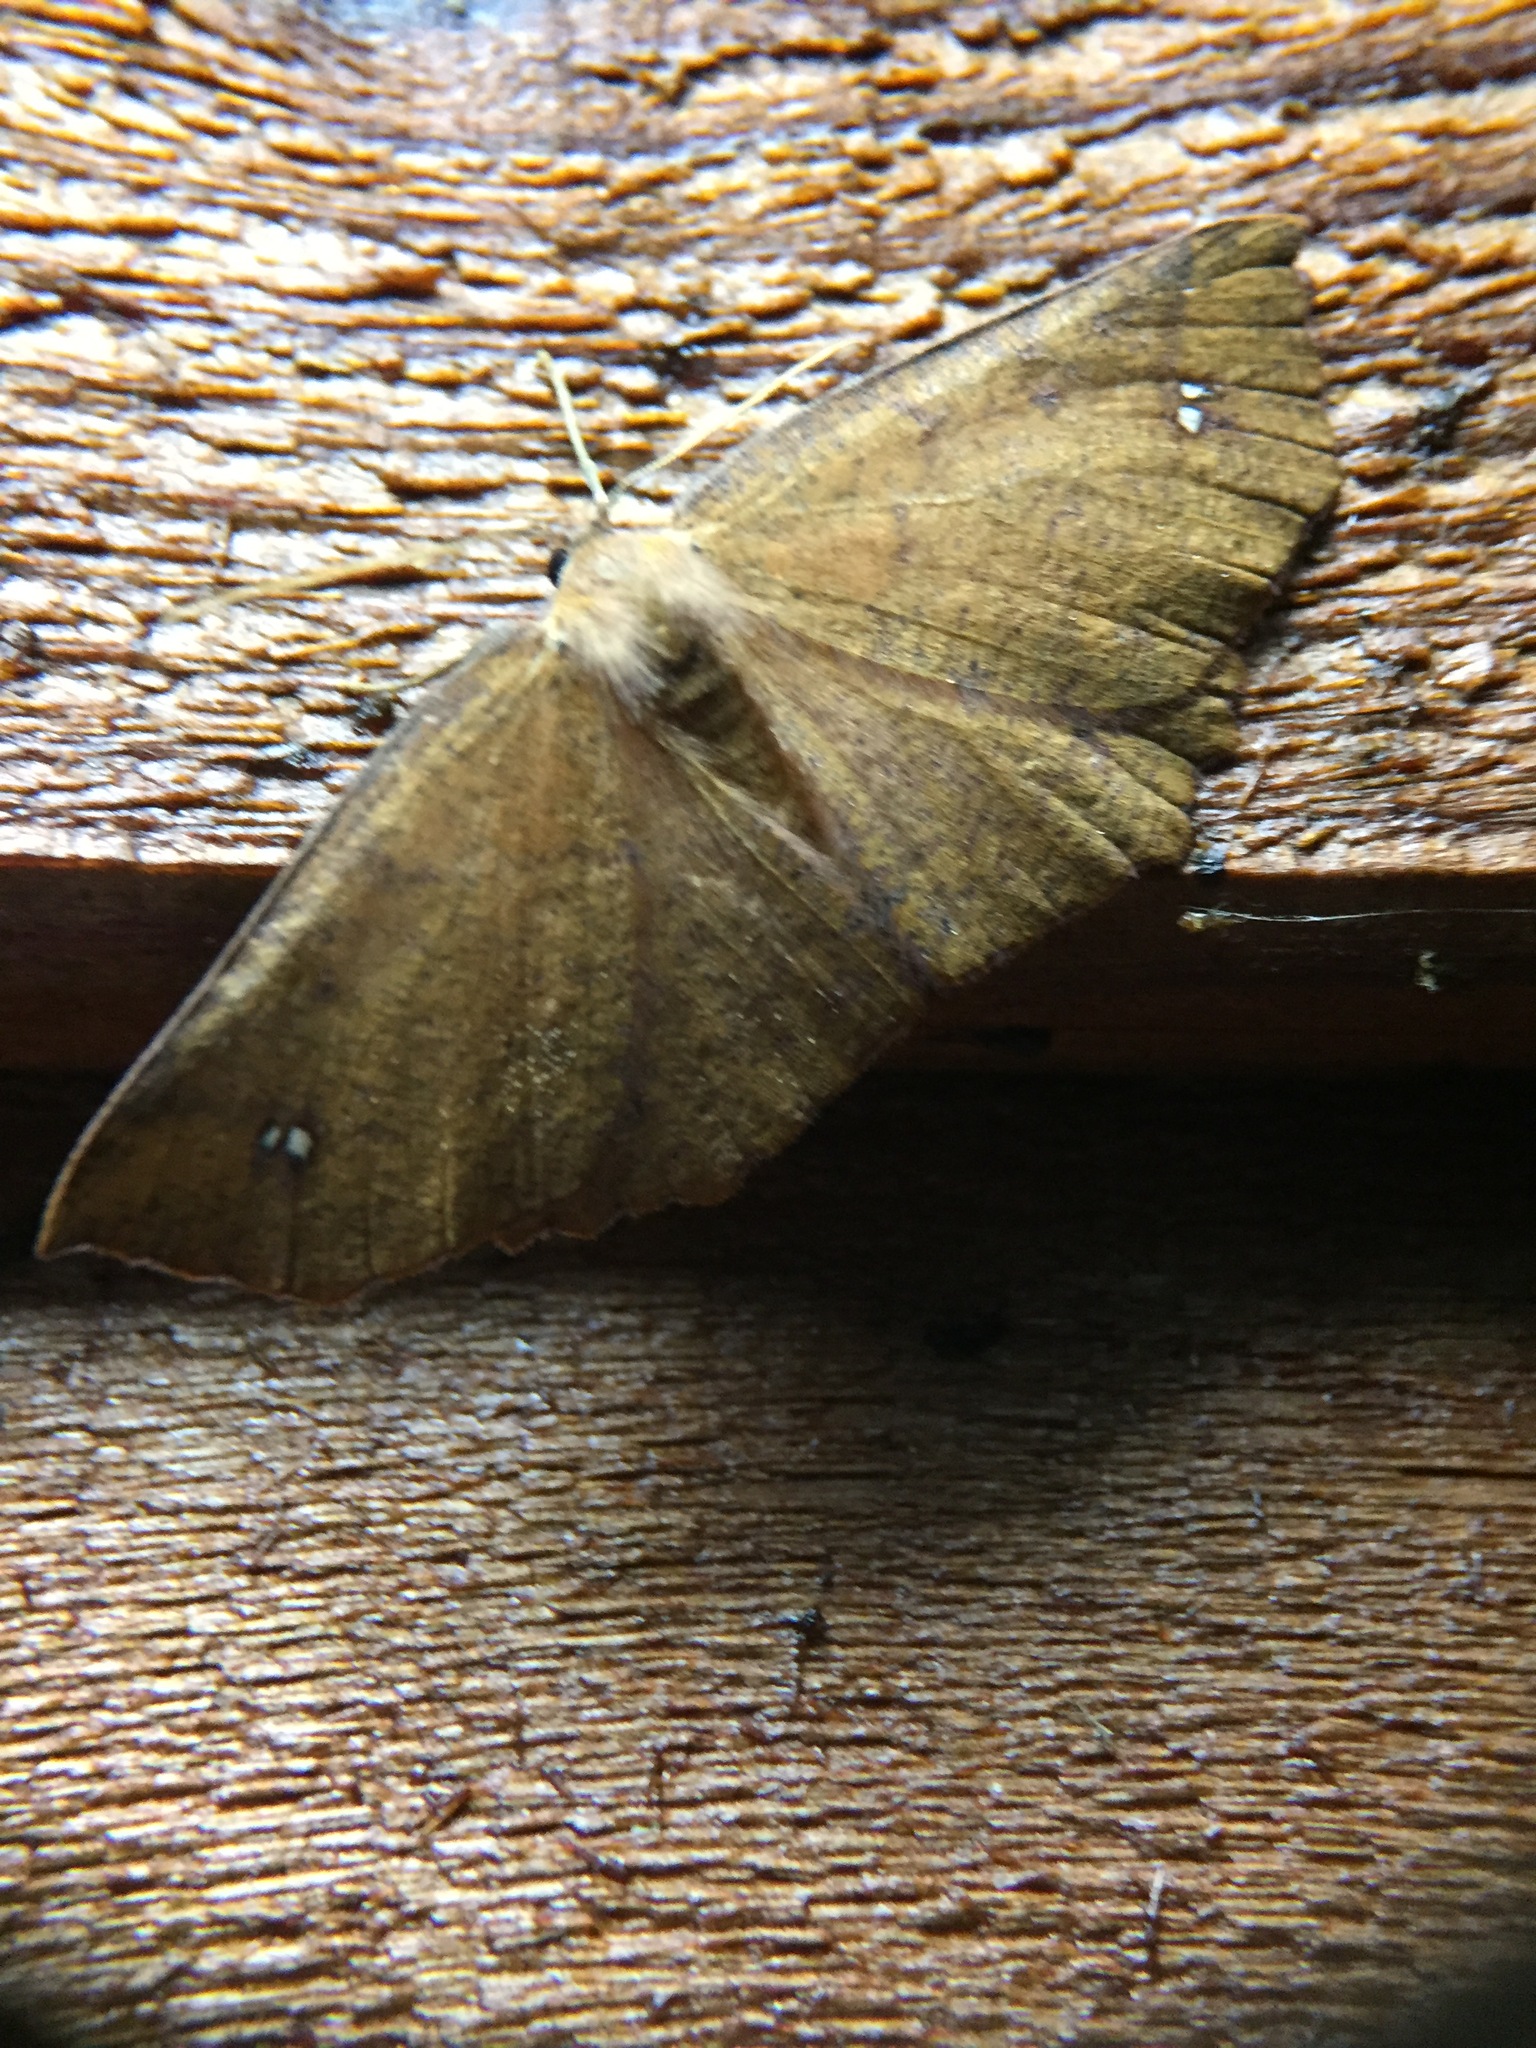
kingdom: Animalia
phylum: Arthropoda
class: Insecta
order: Lepidoptera
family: Geometridae
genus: Xyridacma
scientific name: Xyridacma ustaria
